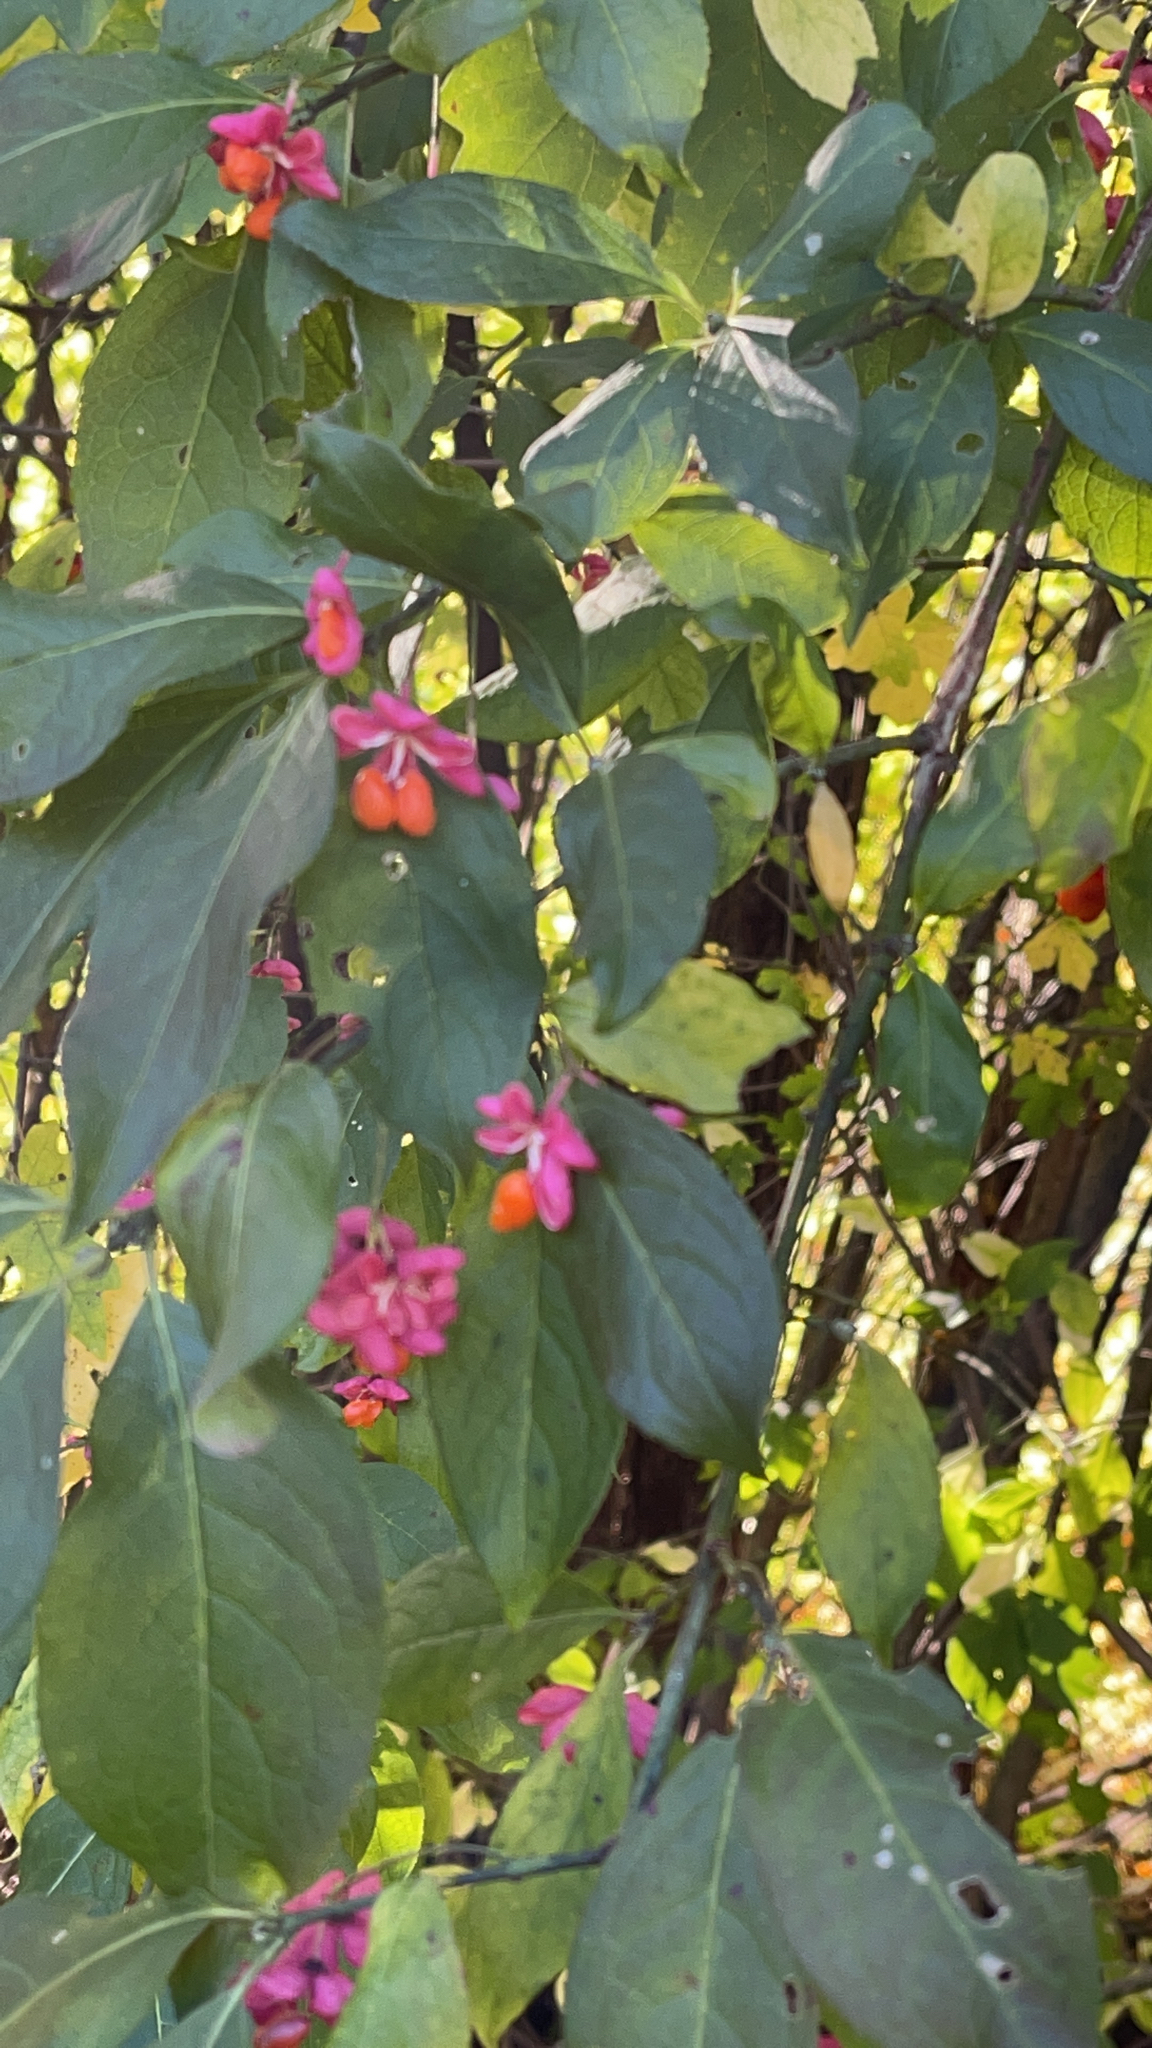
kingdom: Plantae
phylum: Tracheophyta
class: Magnoliopsida
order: Celastrales
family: Celastraceae
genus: Euonymus
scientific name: Euonymus europaeus
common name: Spindle
